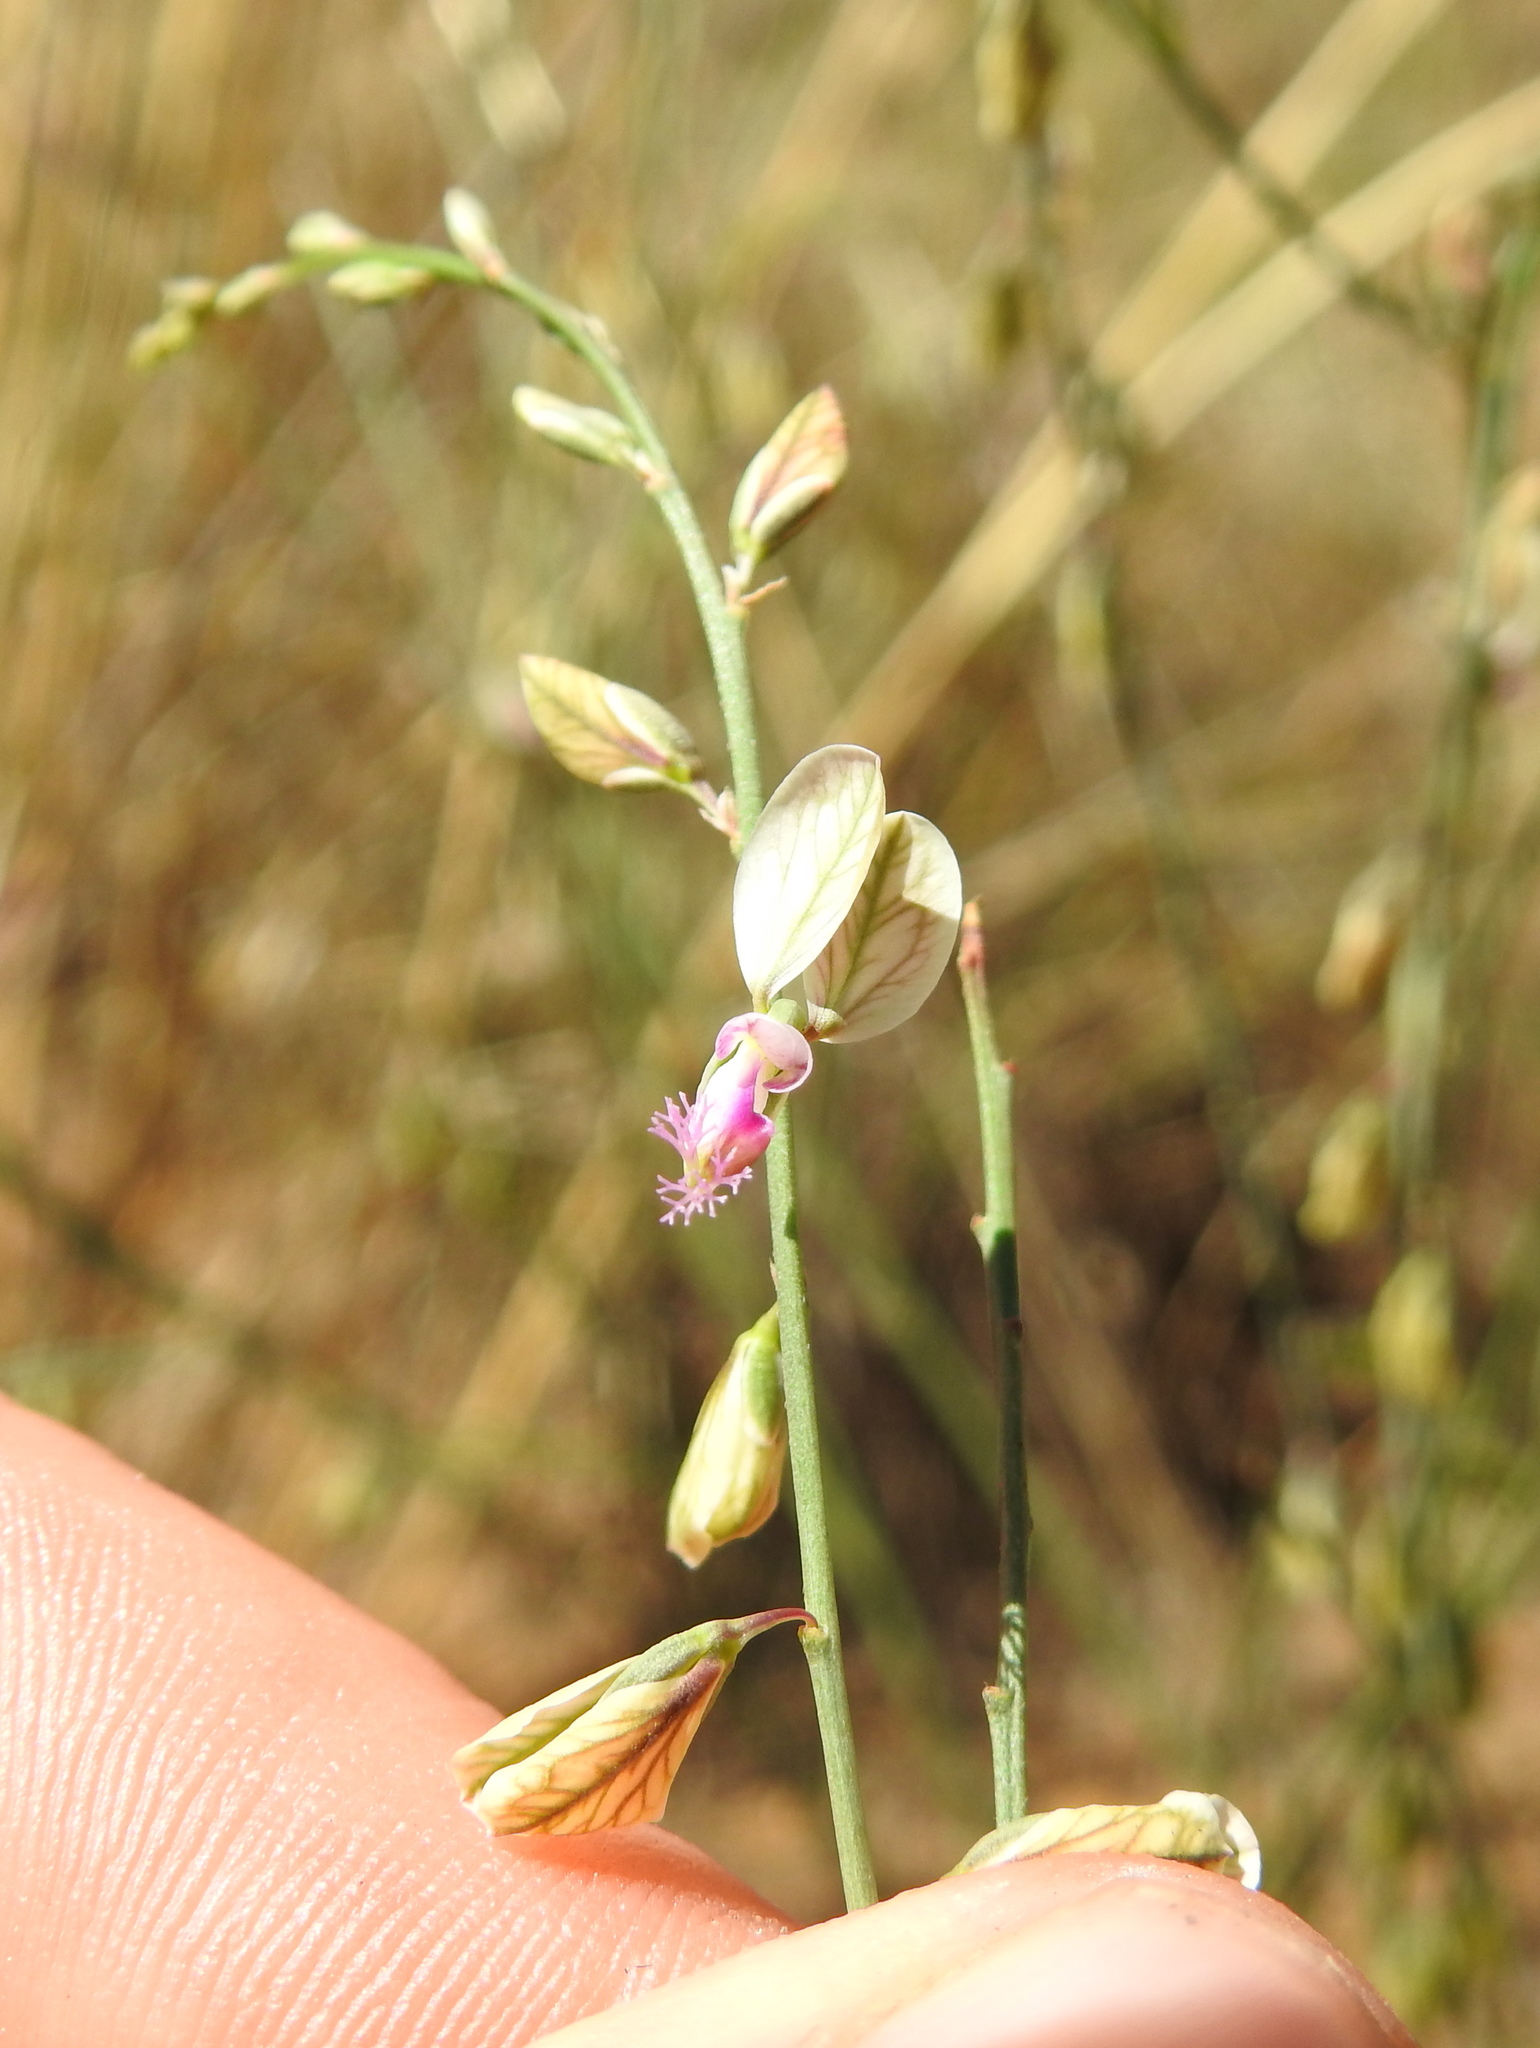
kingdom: Plantae
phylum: Tracheophyta
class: Magnoliopsida
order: Fabales
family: Polygalaceae
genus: Polygala
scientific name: Polygala hottentotta
